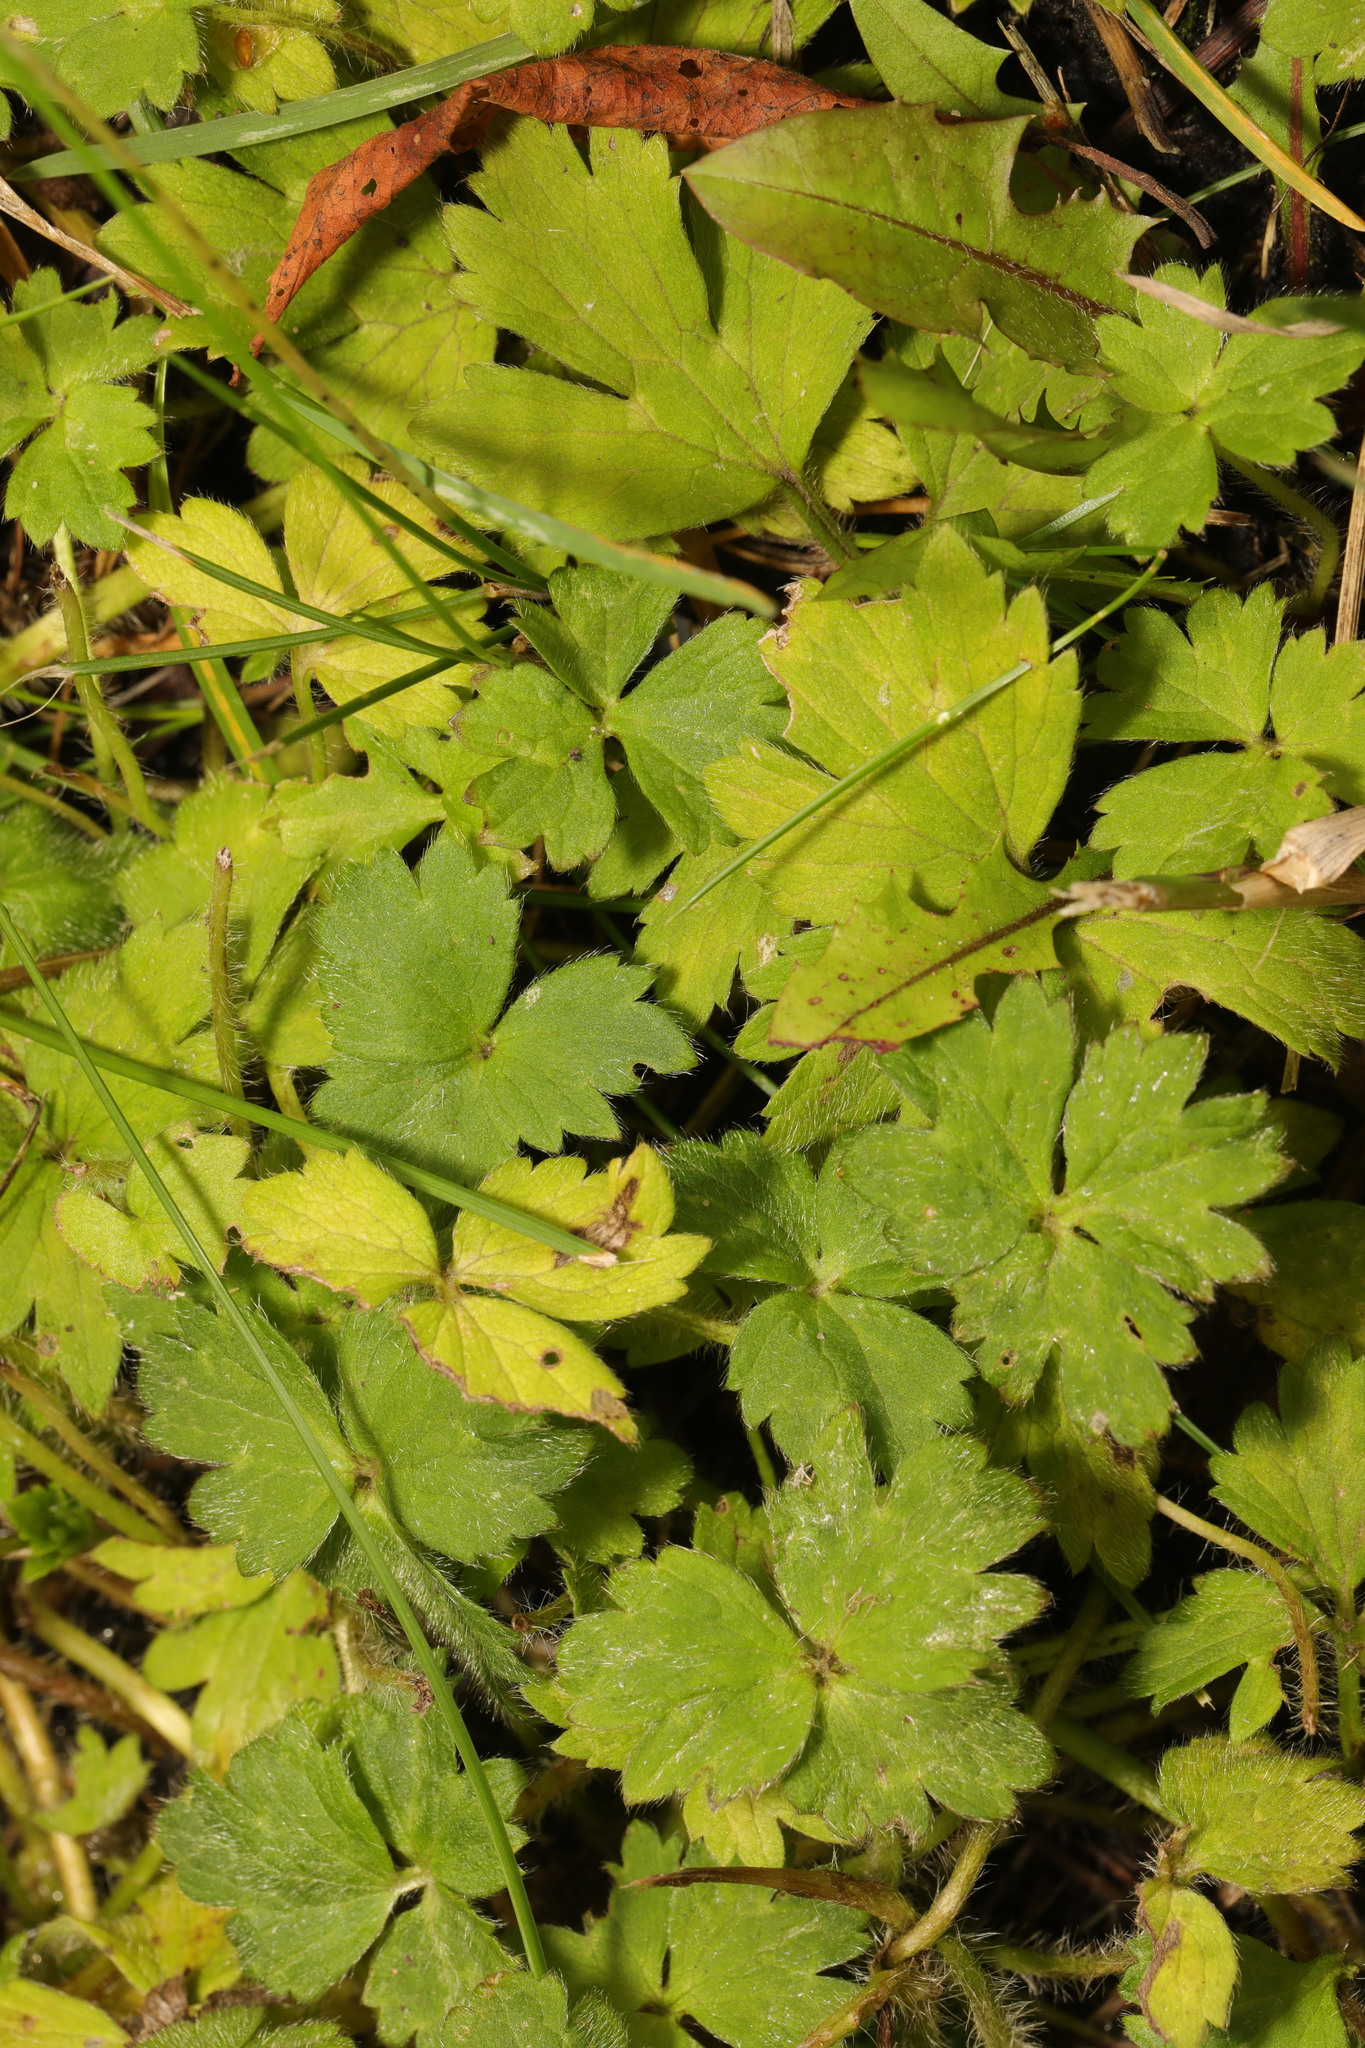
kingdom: Plantae
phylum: Tracheophyta
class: Magnoliopsida
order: Ranunculales
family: Ranunculaceae
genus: Ranunculus
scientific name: Ranunculus repens
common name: Creeping buttercup
